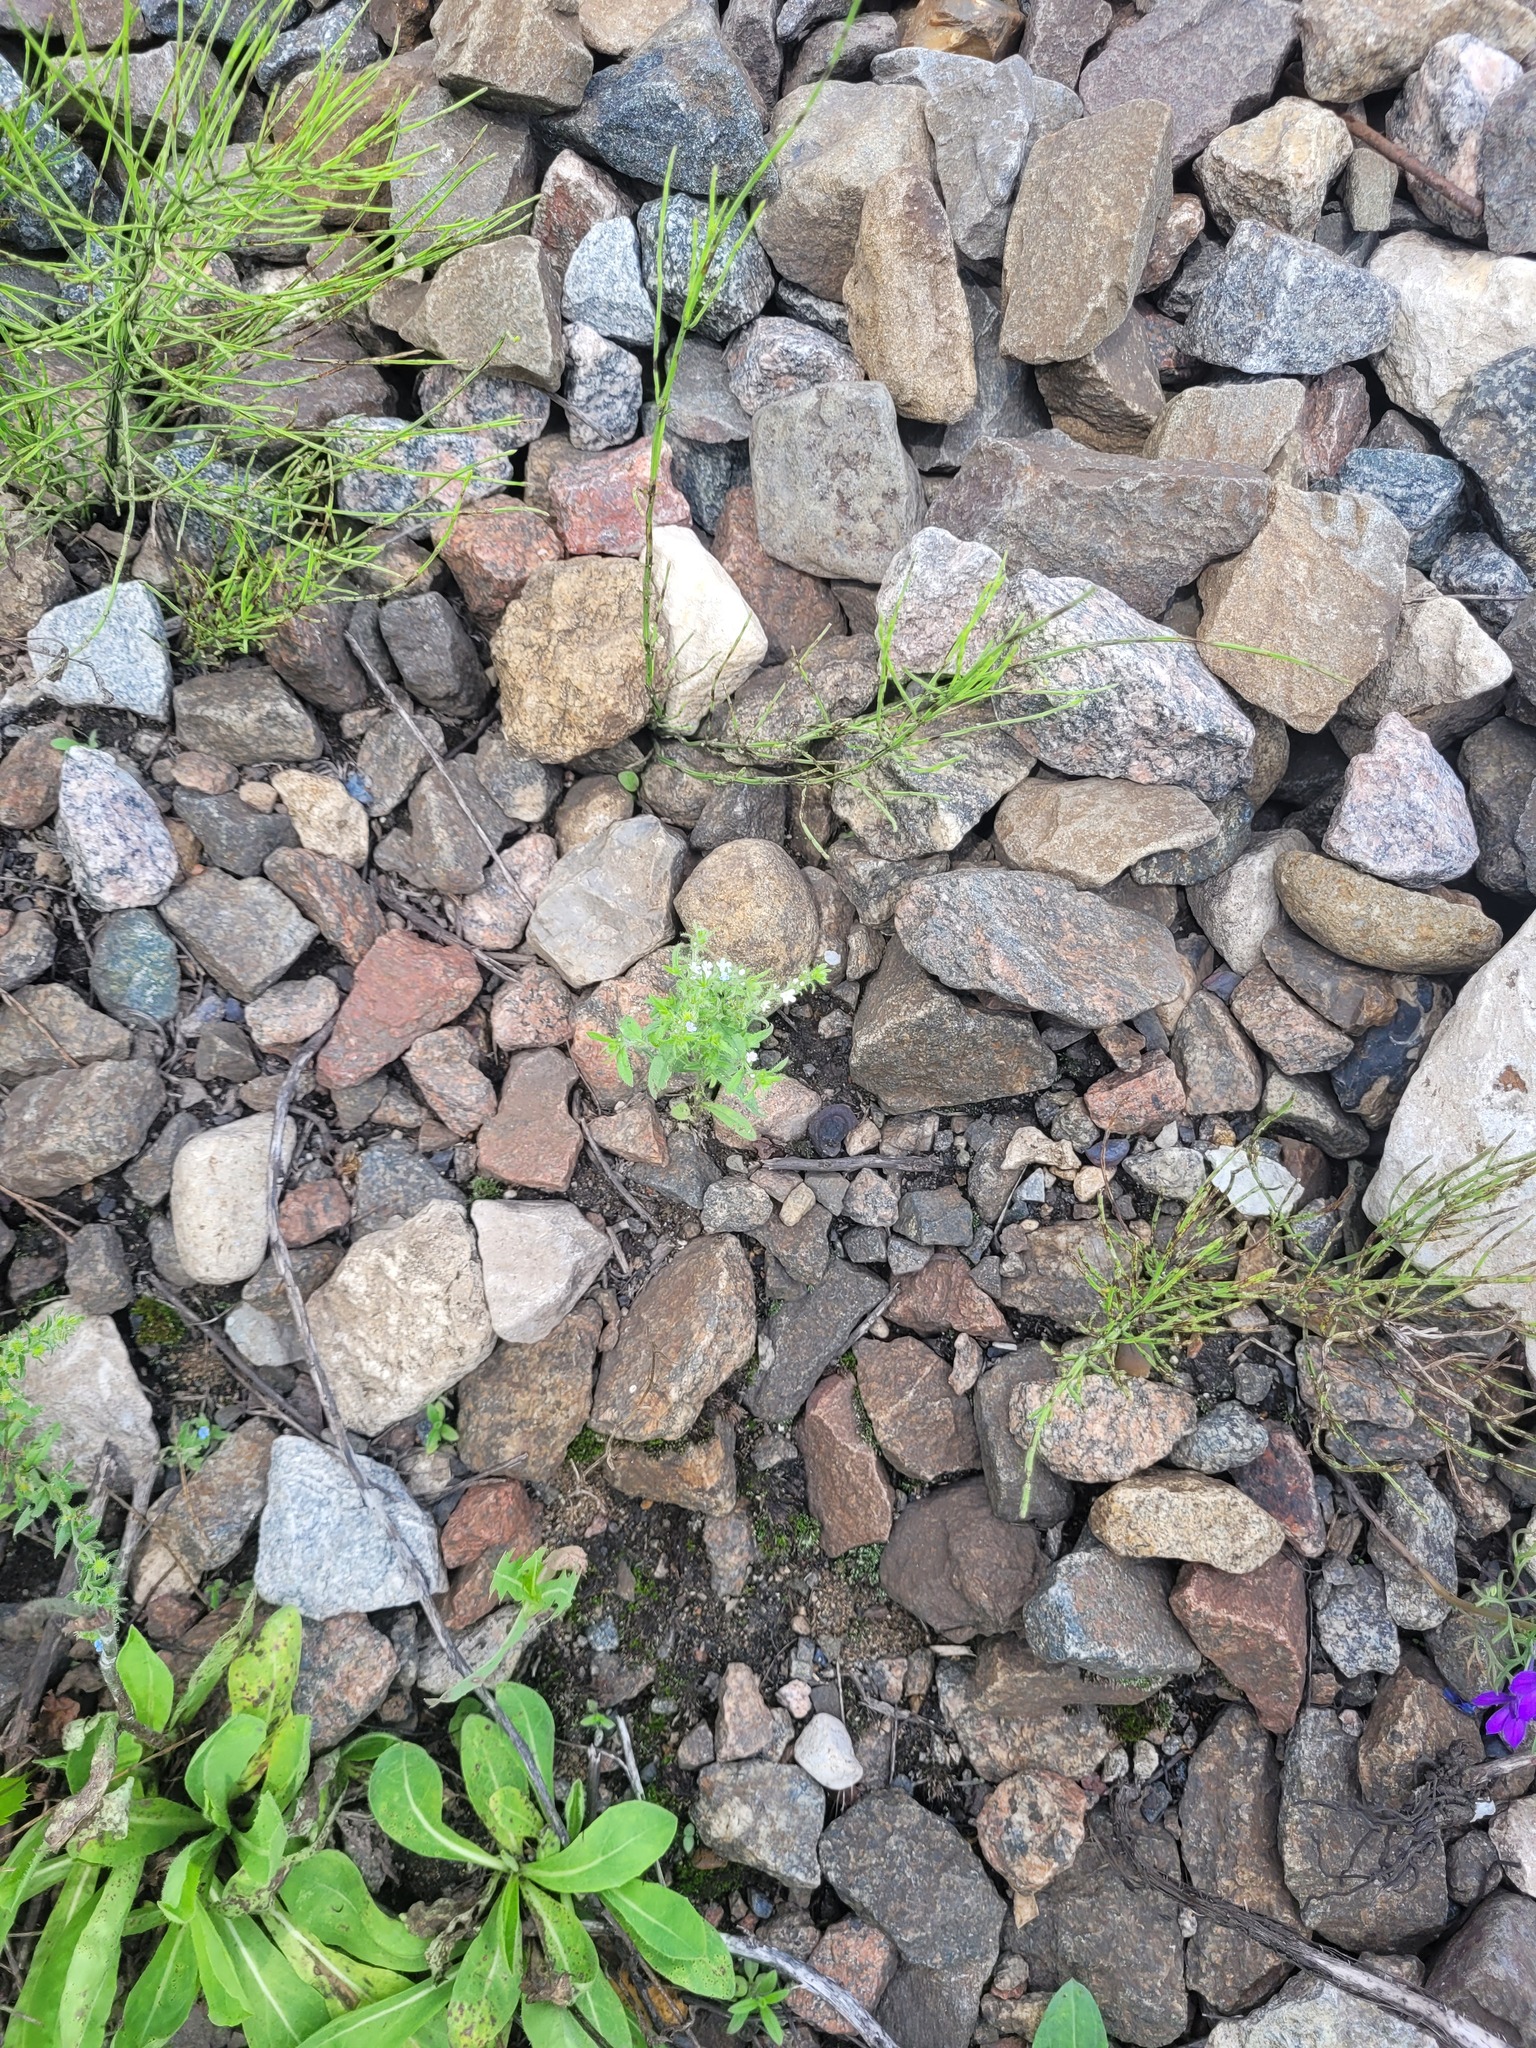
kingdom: Plantae
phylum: Tracheophyta
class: Magnoliopsida
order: Boraginales
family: Boraginaceae
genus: Lappula
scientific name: Lappula squarrosa
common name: European stickseed
